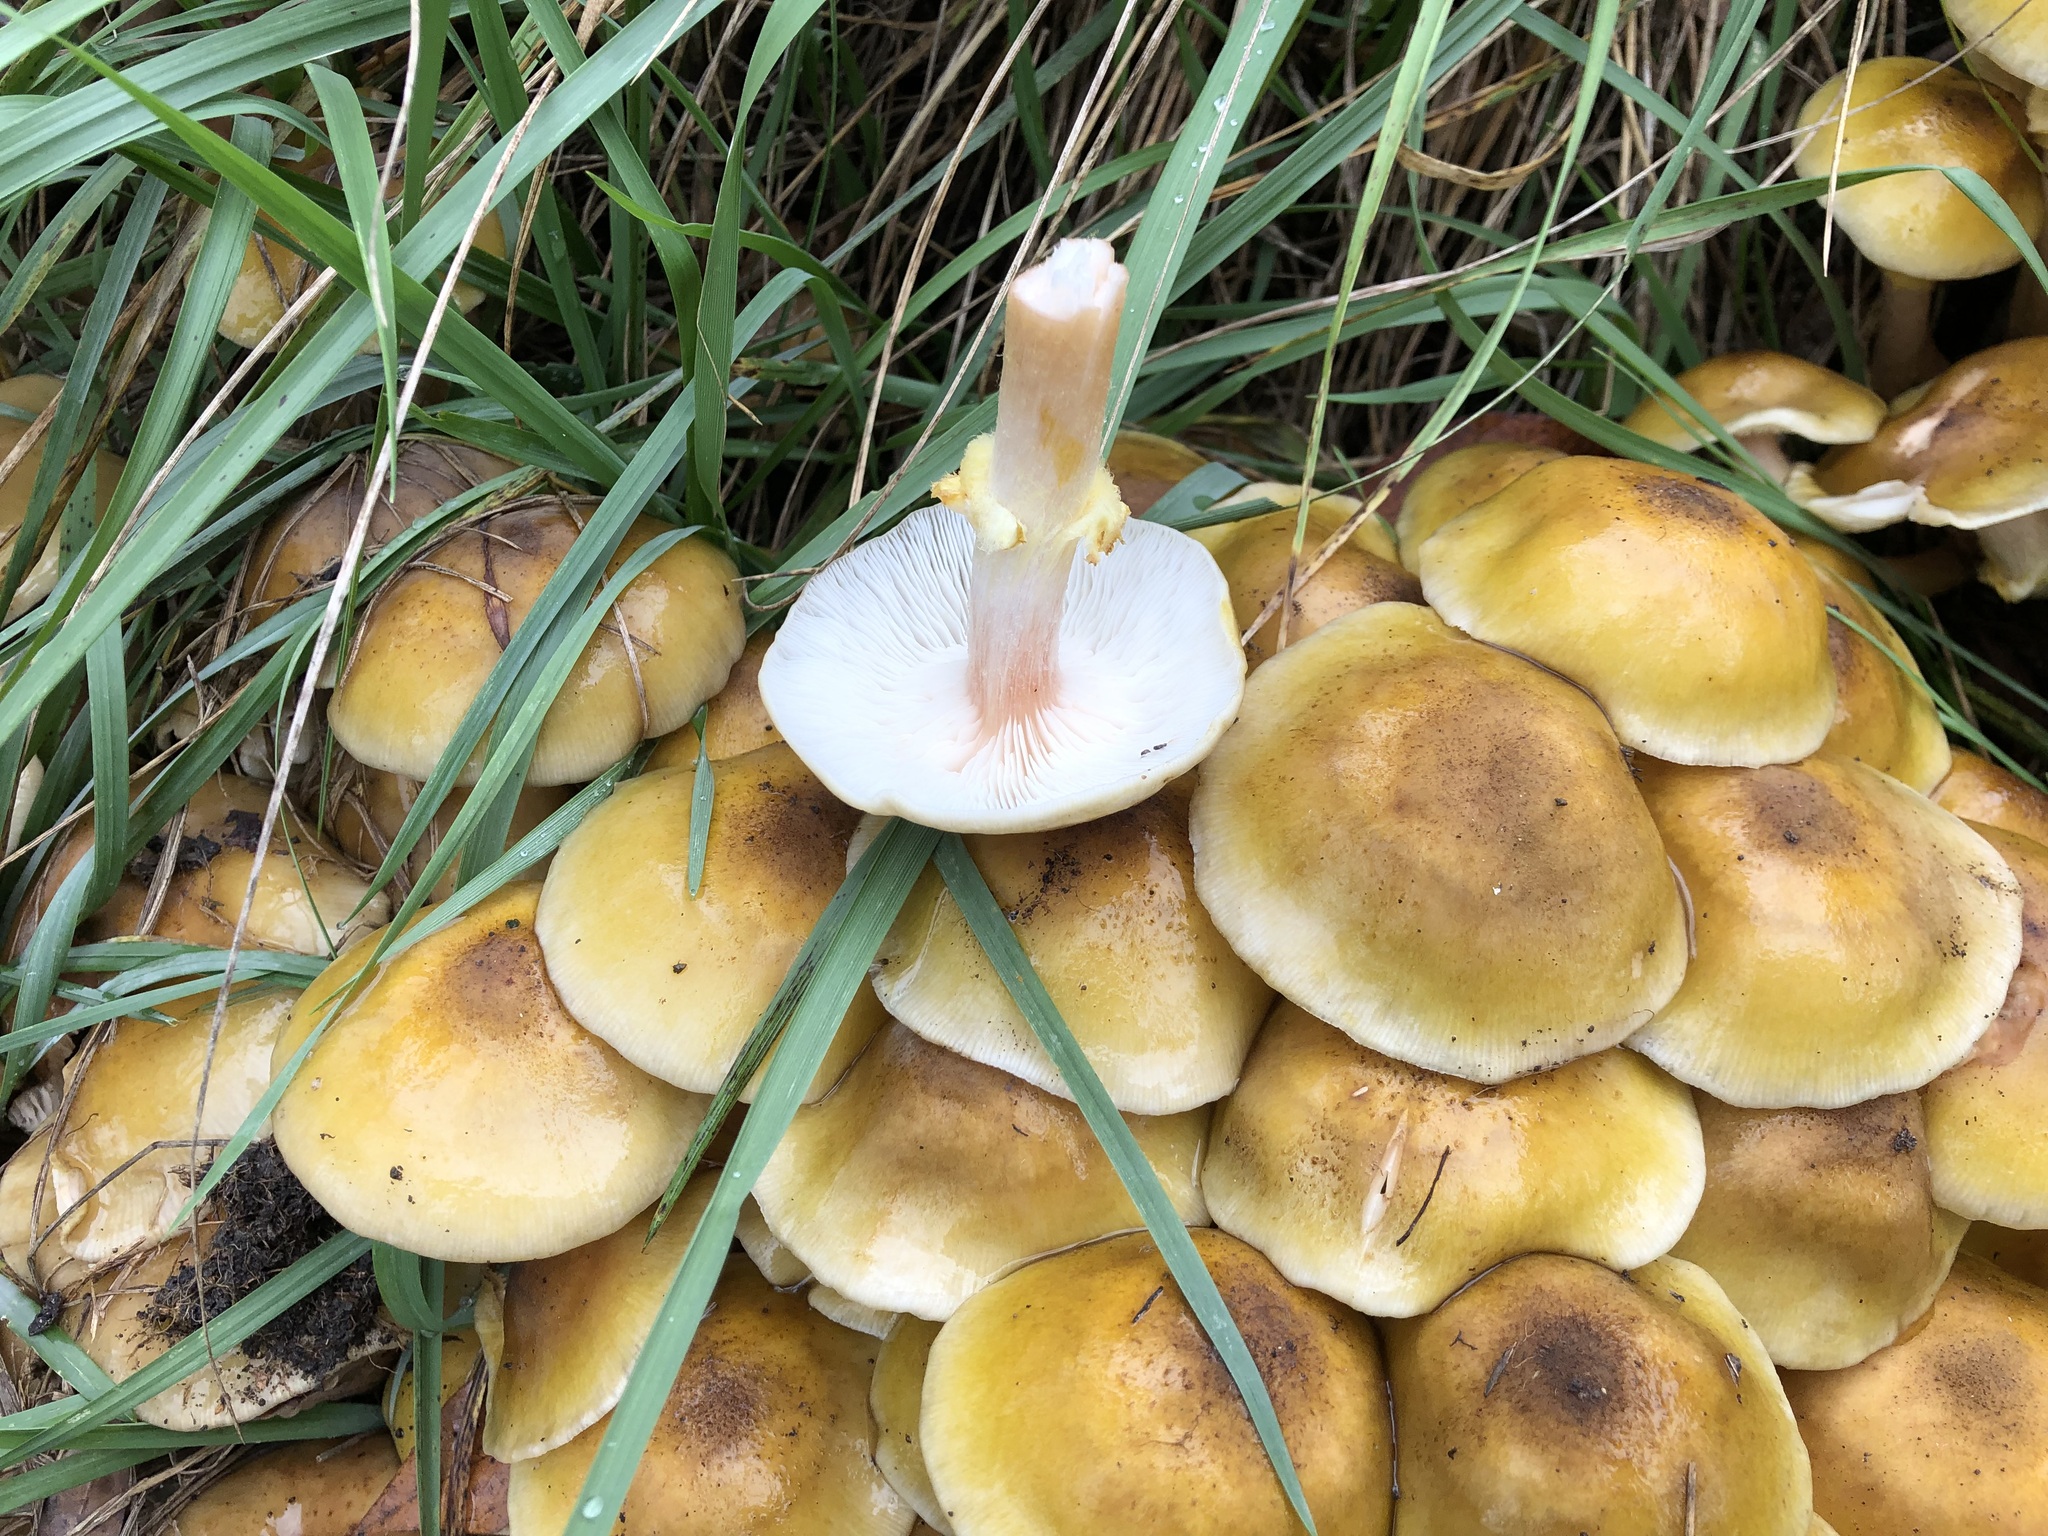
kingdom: Fungi
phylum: Basidiomycota
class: Agaricomycetes
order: Agaricales
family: Physalacriaceae
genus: Armillaria
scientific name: Armillaria mellea
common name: Honey fungus
